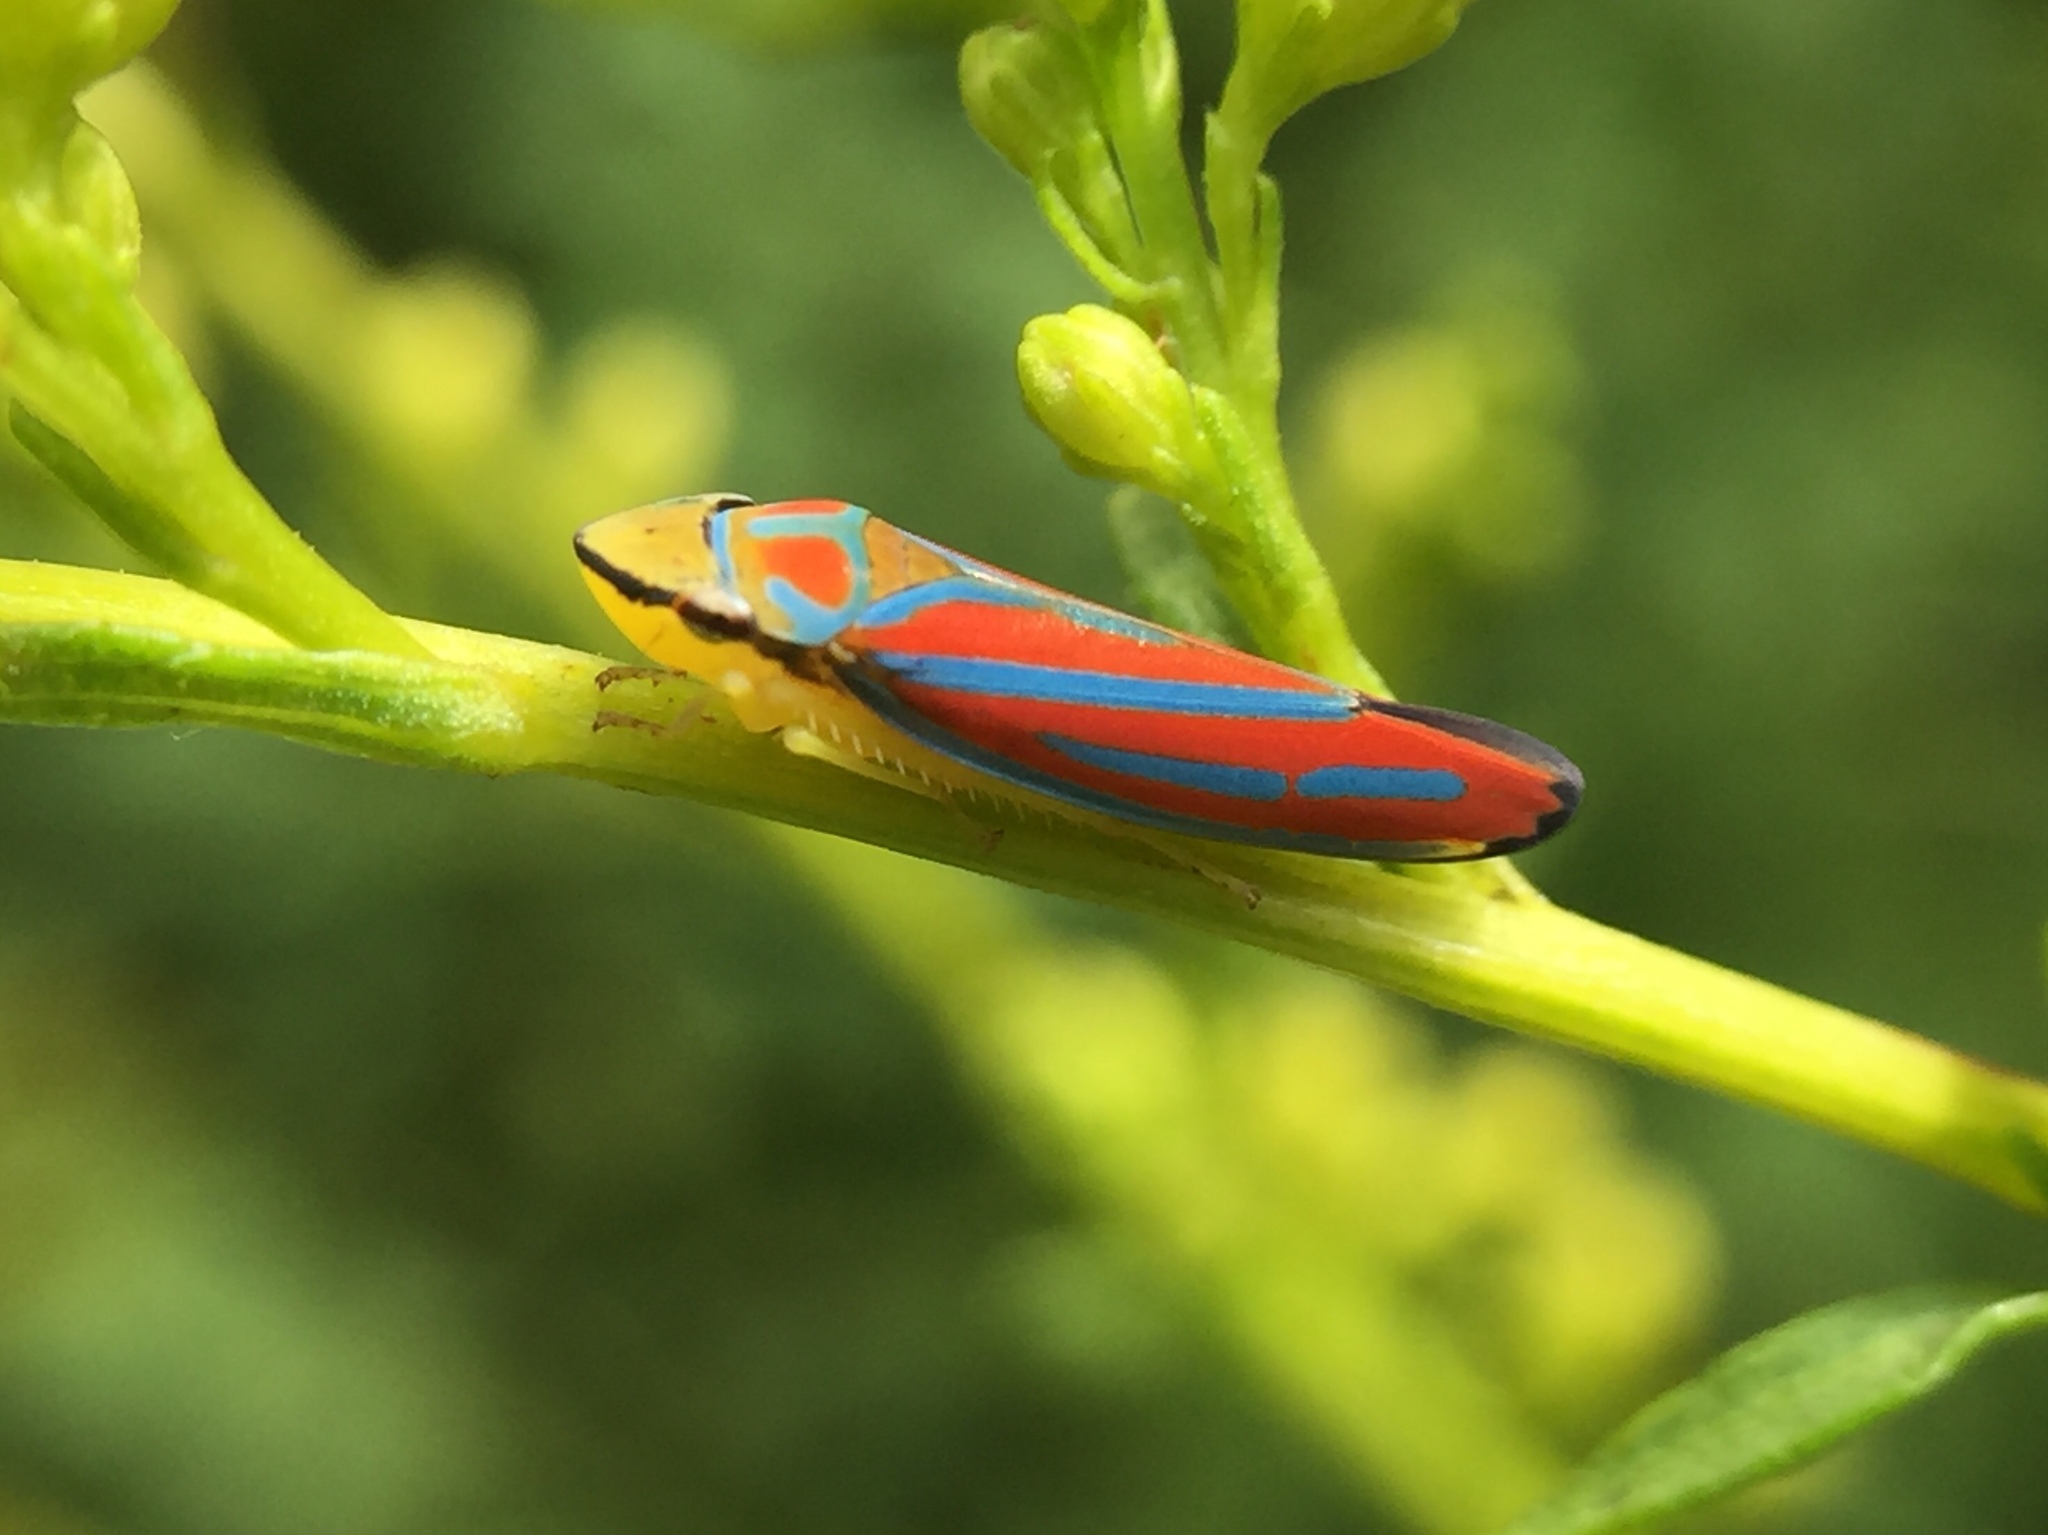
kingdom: Animalia
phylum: Arthropoda
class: Insecta
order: Hemiptera
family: Cicadellidae
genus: Graphocephala
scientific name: Graphocephala coccinea
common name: Candy-striped leafhopper
